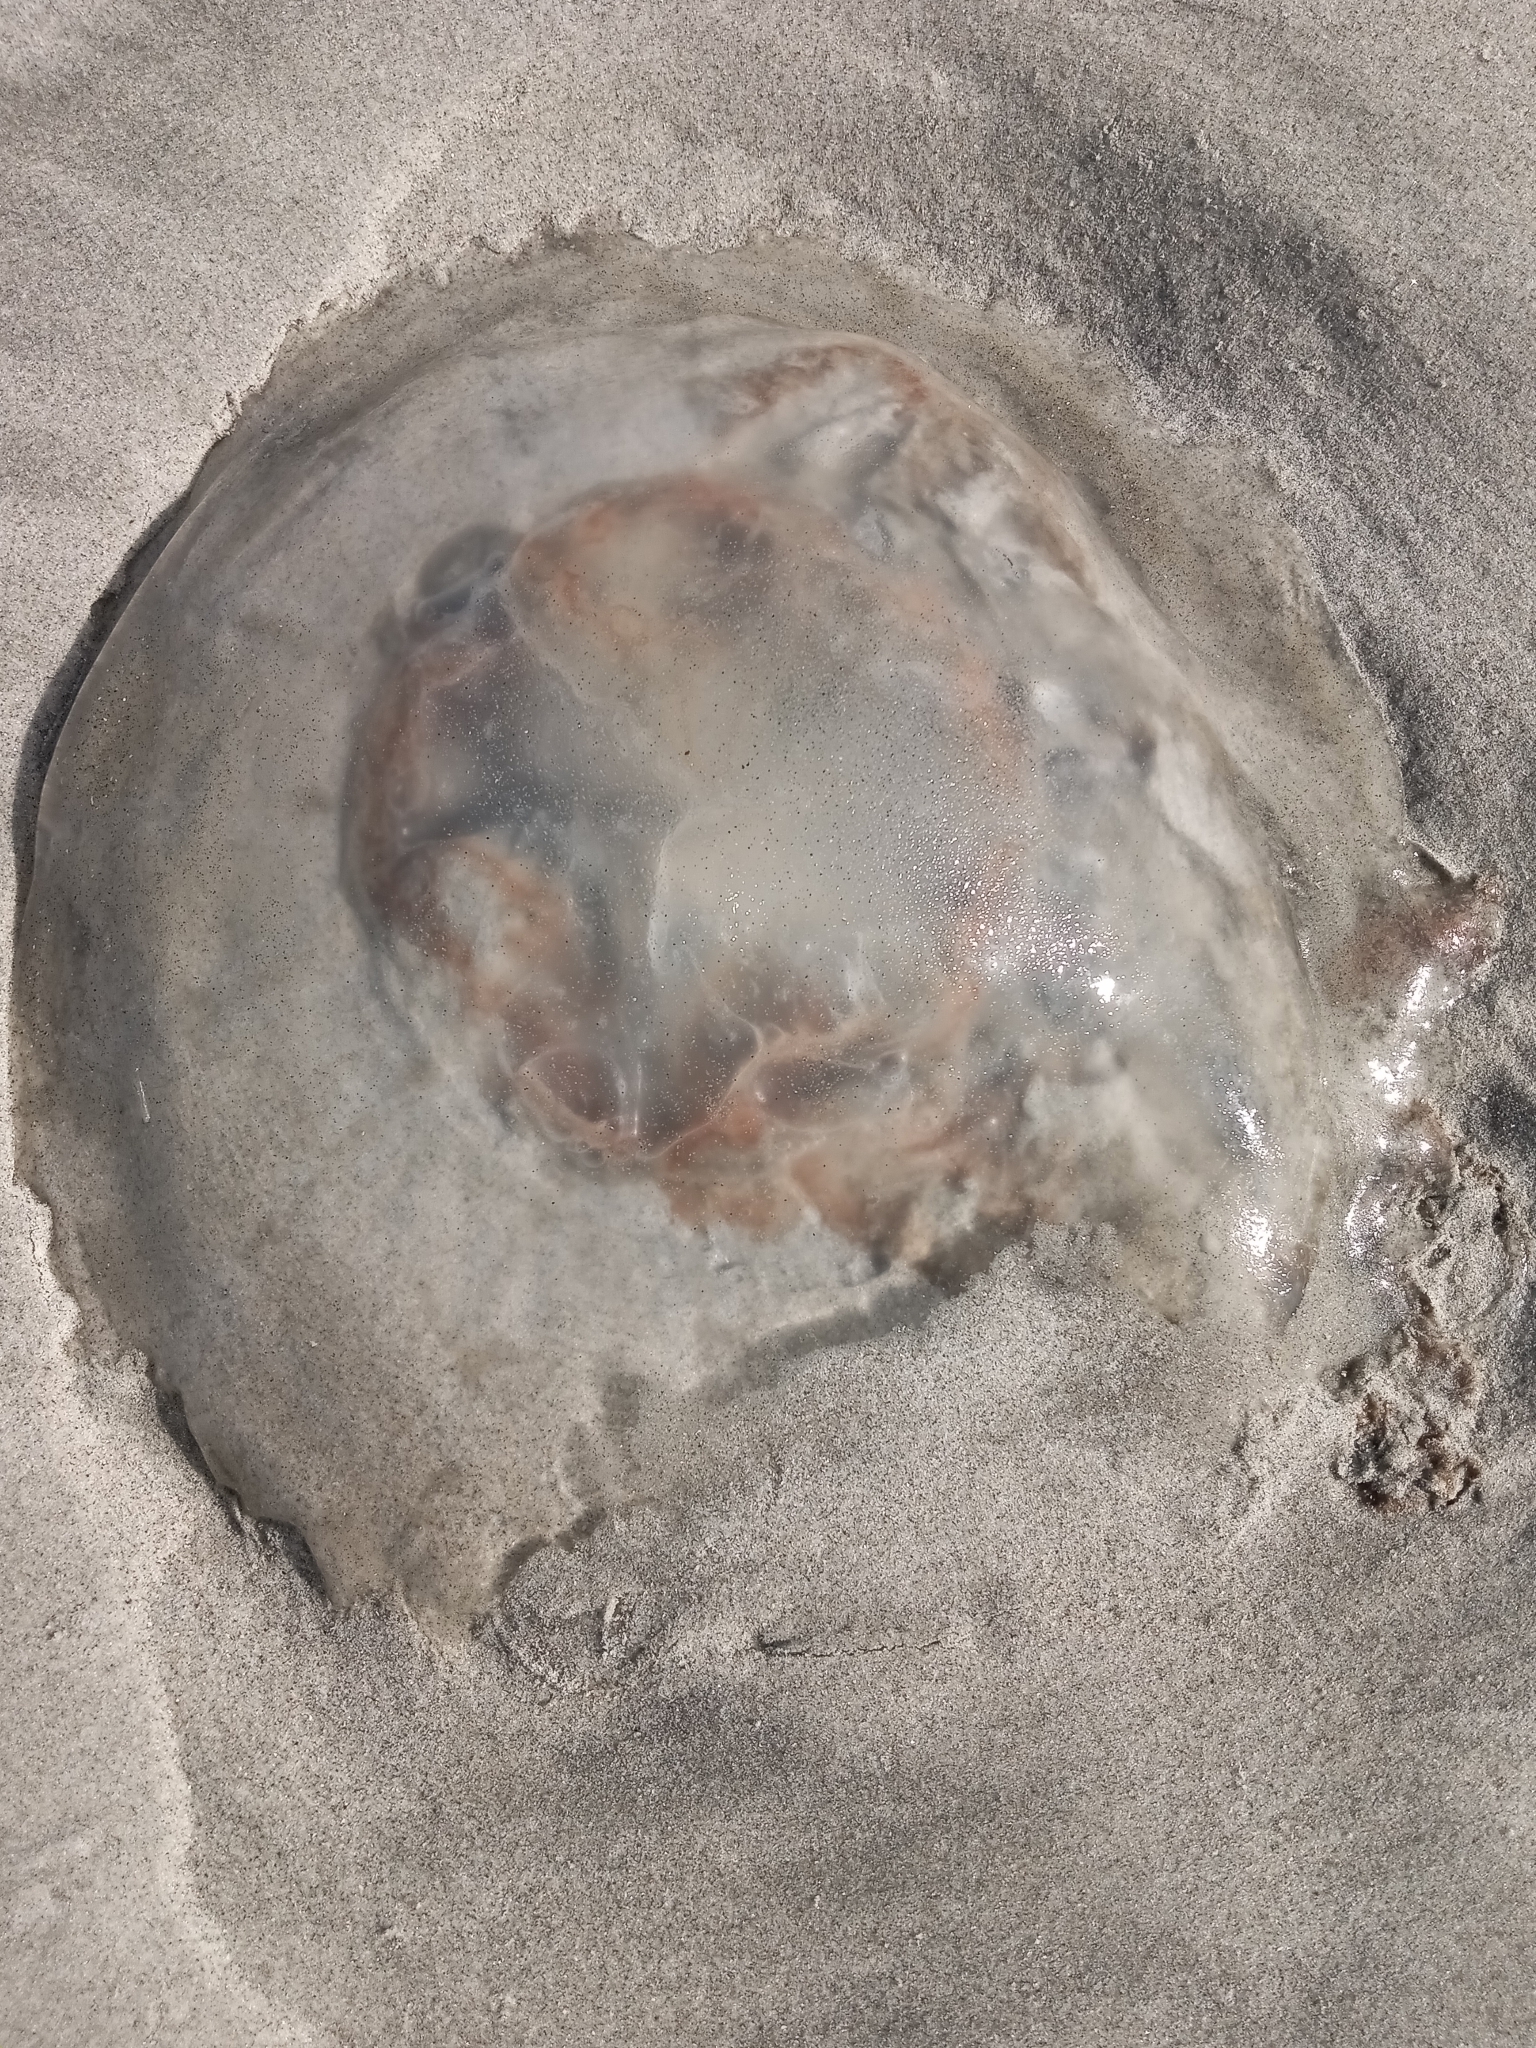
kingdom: Animalia
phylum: Cnidaria
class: Scyphozoa
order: Rhizostomeae
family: Rhizostomatidae
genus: Rhopilema
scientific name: Rhopilema verrilli
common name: Mushroom cap jellyfish
